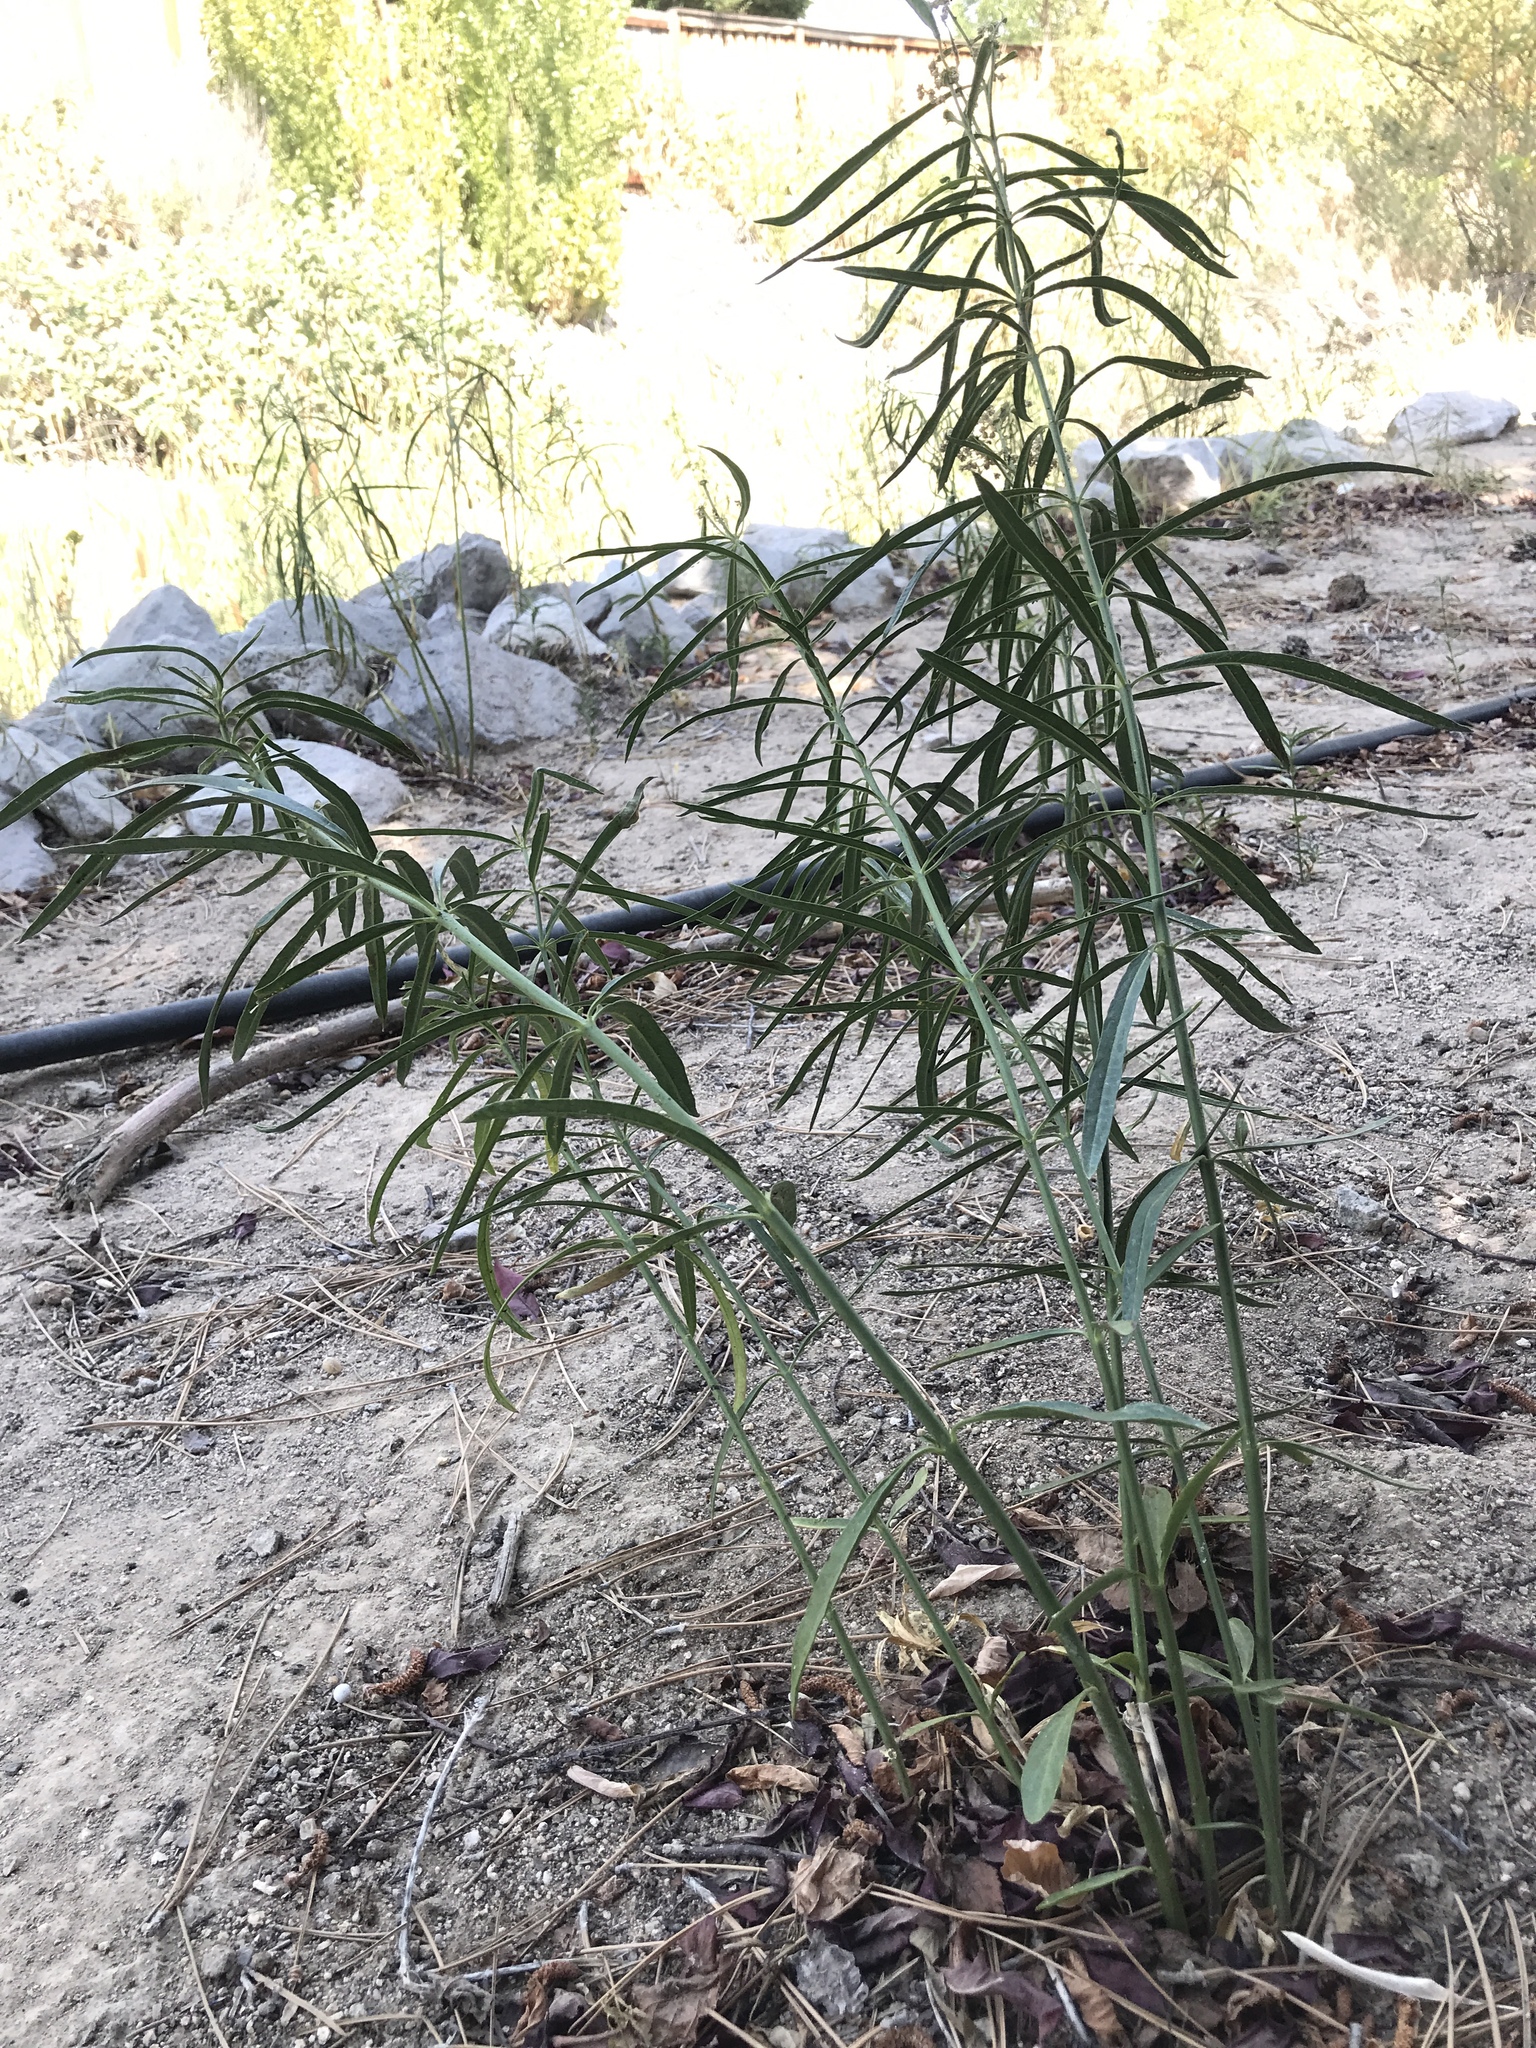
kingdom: Plantae
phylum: Tracheophyta
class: Magnoliopsida
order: Gentianales
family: Apocynaceae
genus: Asclepias
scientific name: Asclepias fascicularis
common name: Mexican milkweed
